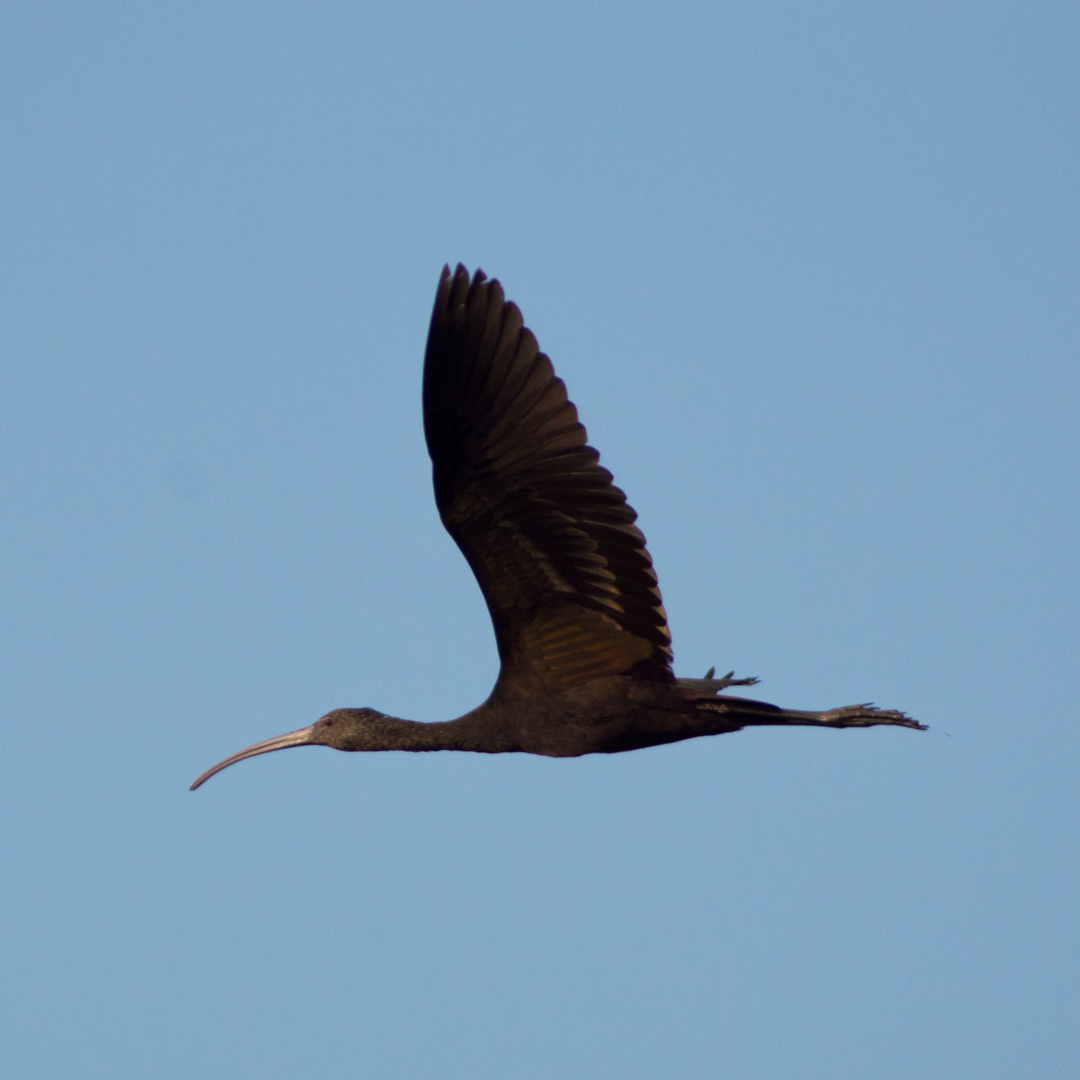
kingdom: Animalia
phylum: Chordata
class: Aves
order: Pelecaniformes
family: Threskiornithidae
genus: Plegadis
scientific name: Plegadis chihi
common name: White-faced ibis
